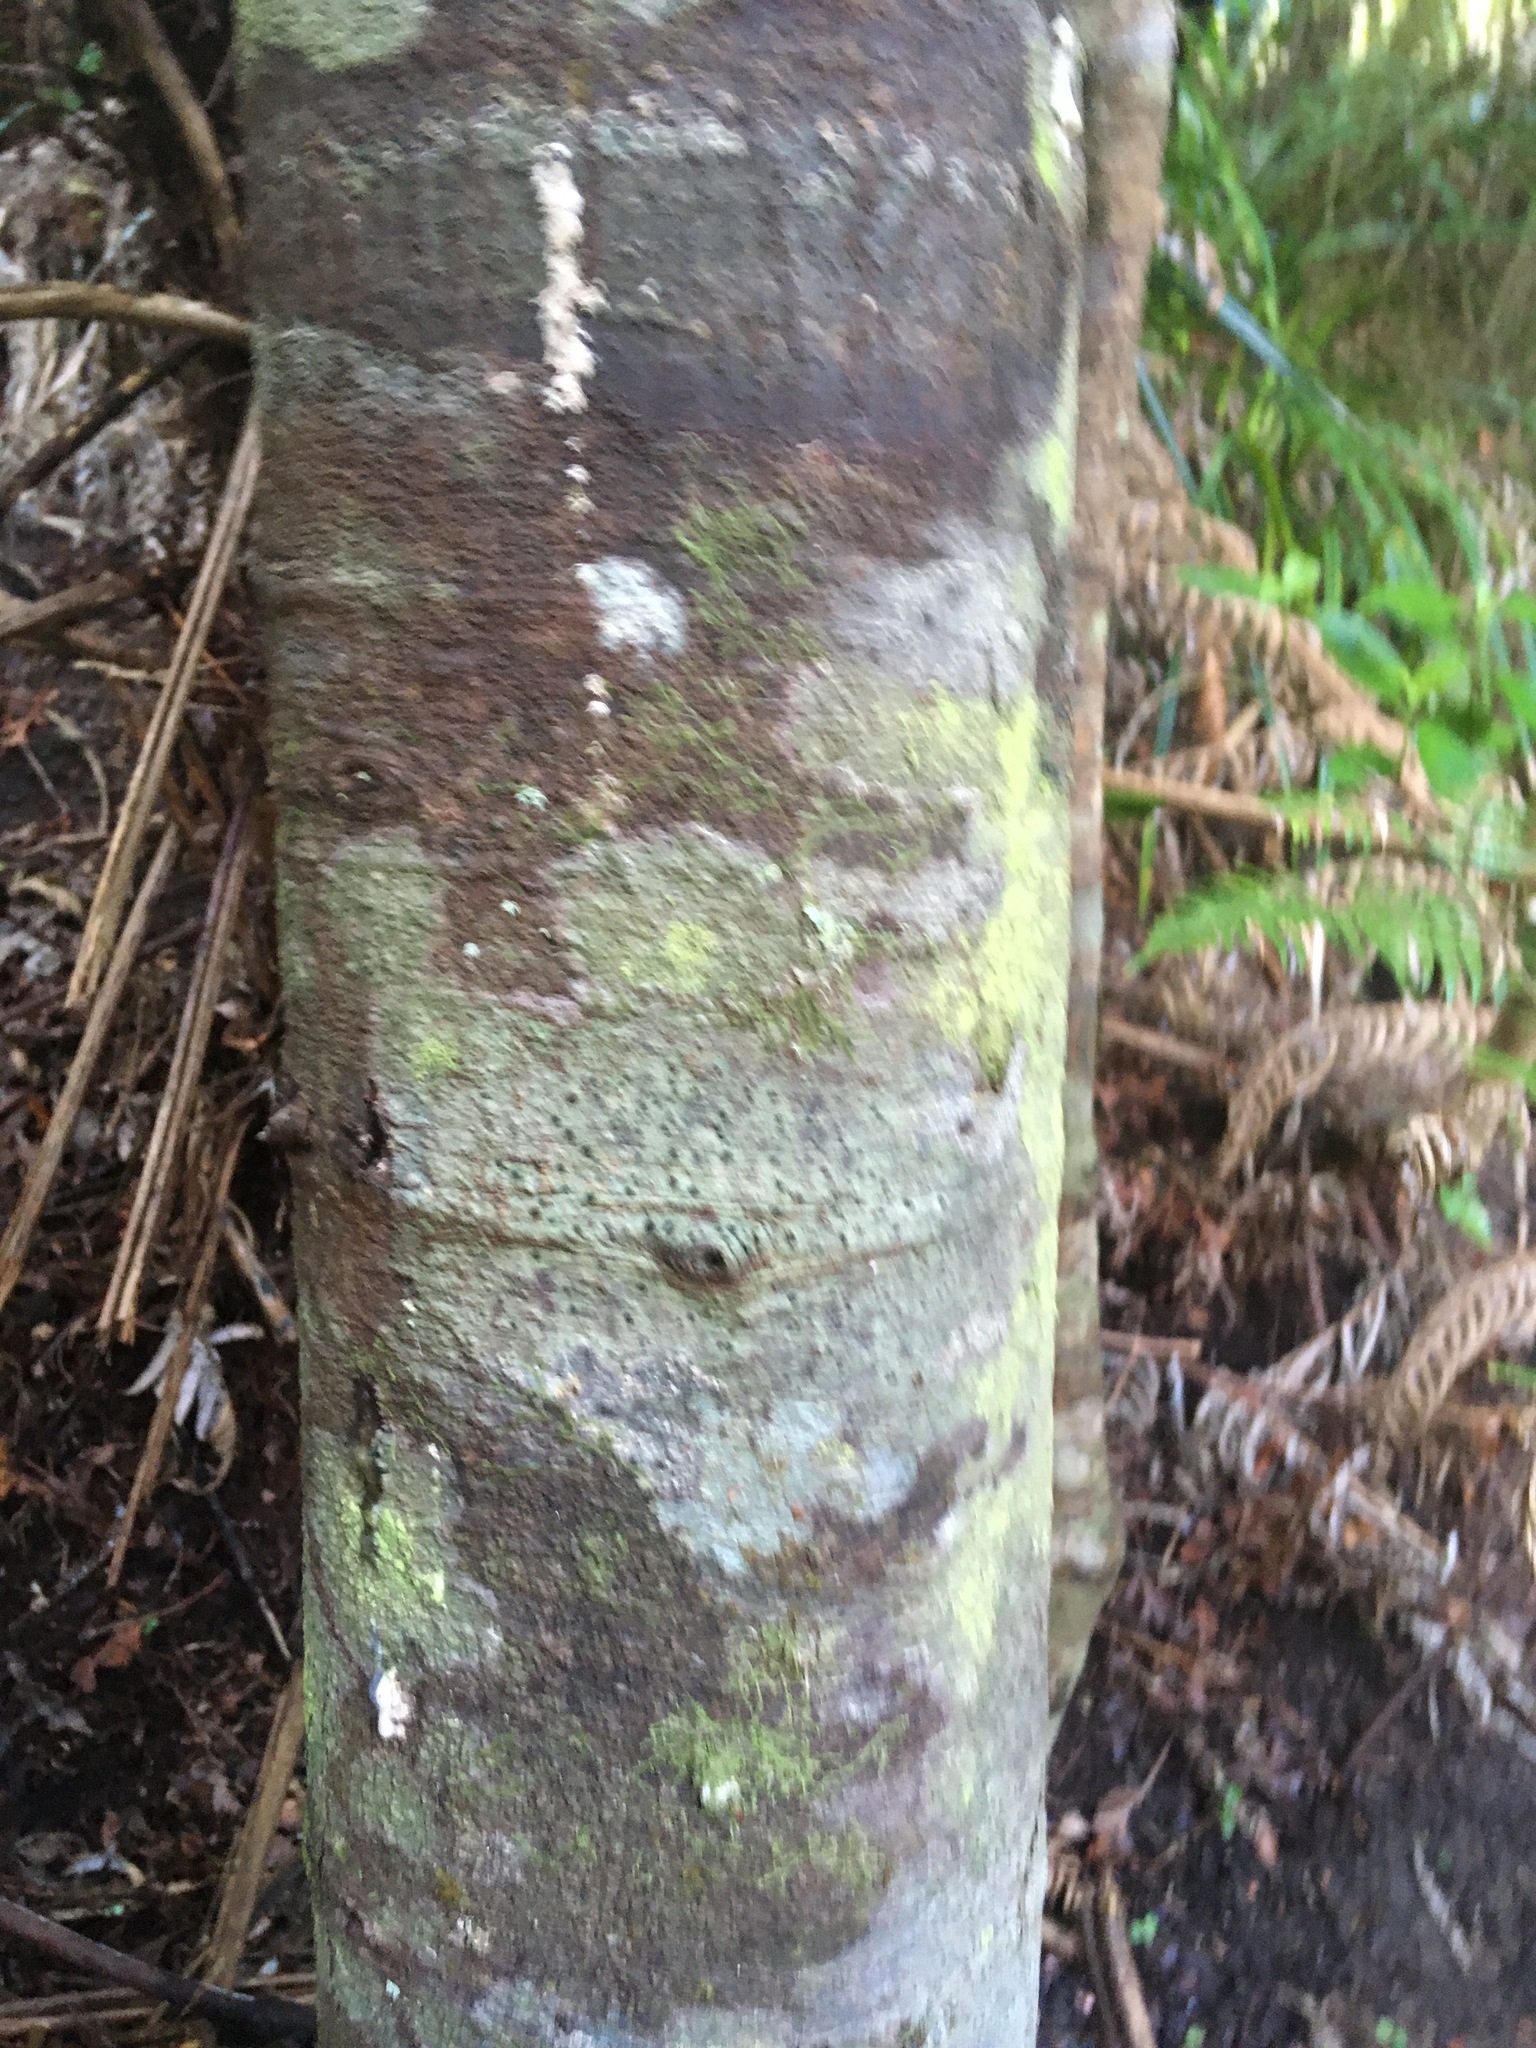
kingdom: Plantae
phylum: Tracheophyta
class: Pinopsida
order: Pinales
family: Phyllocladaceae
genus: Phyllocladus
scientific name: Phyllocladus trichomanoides
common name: Celery pine
